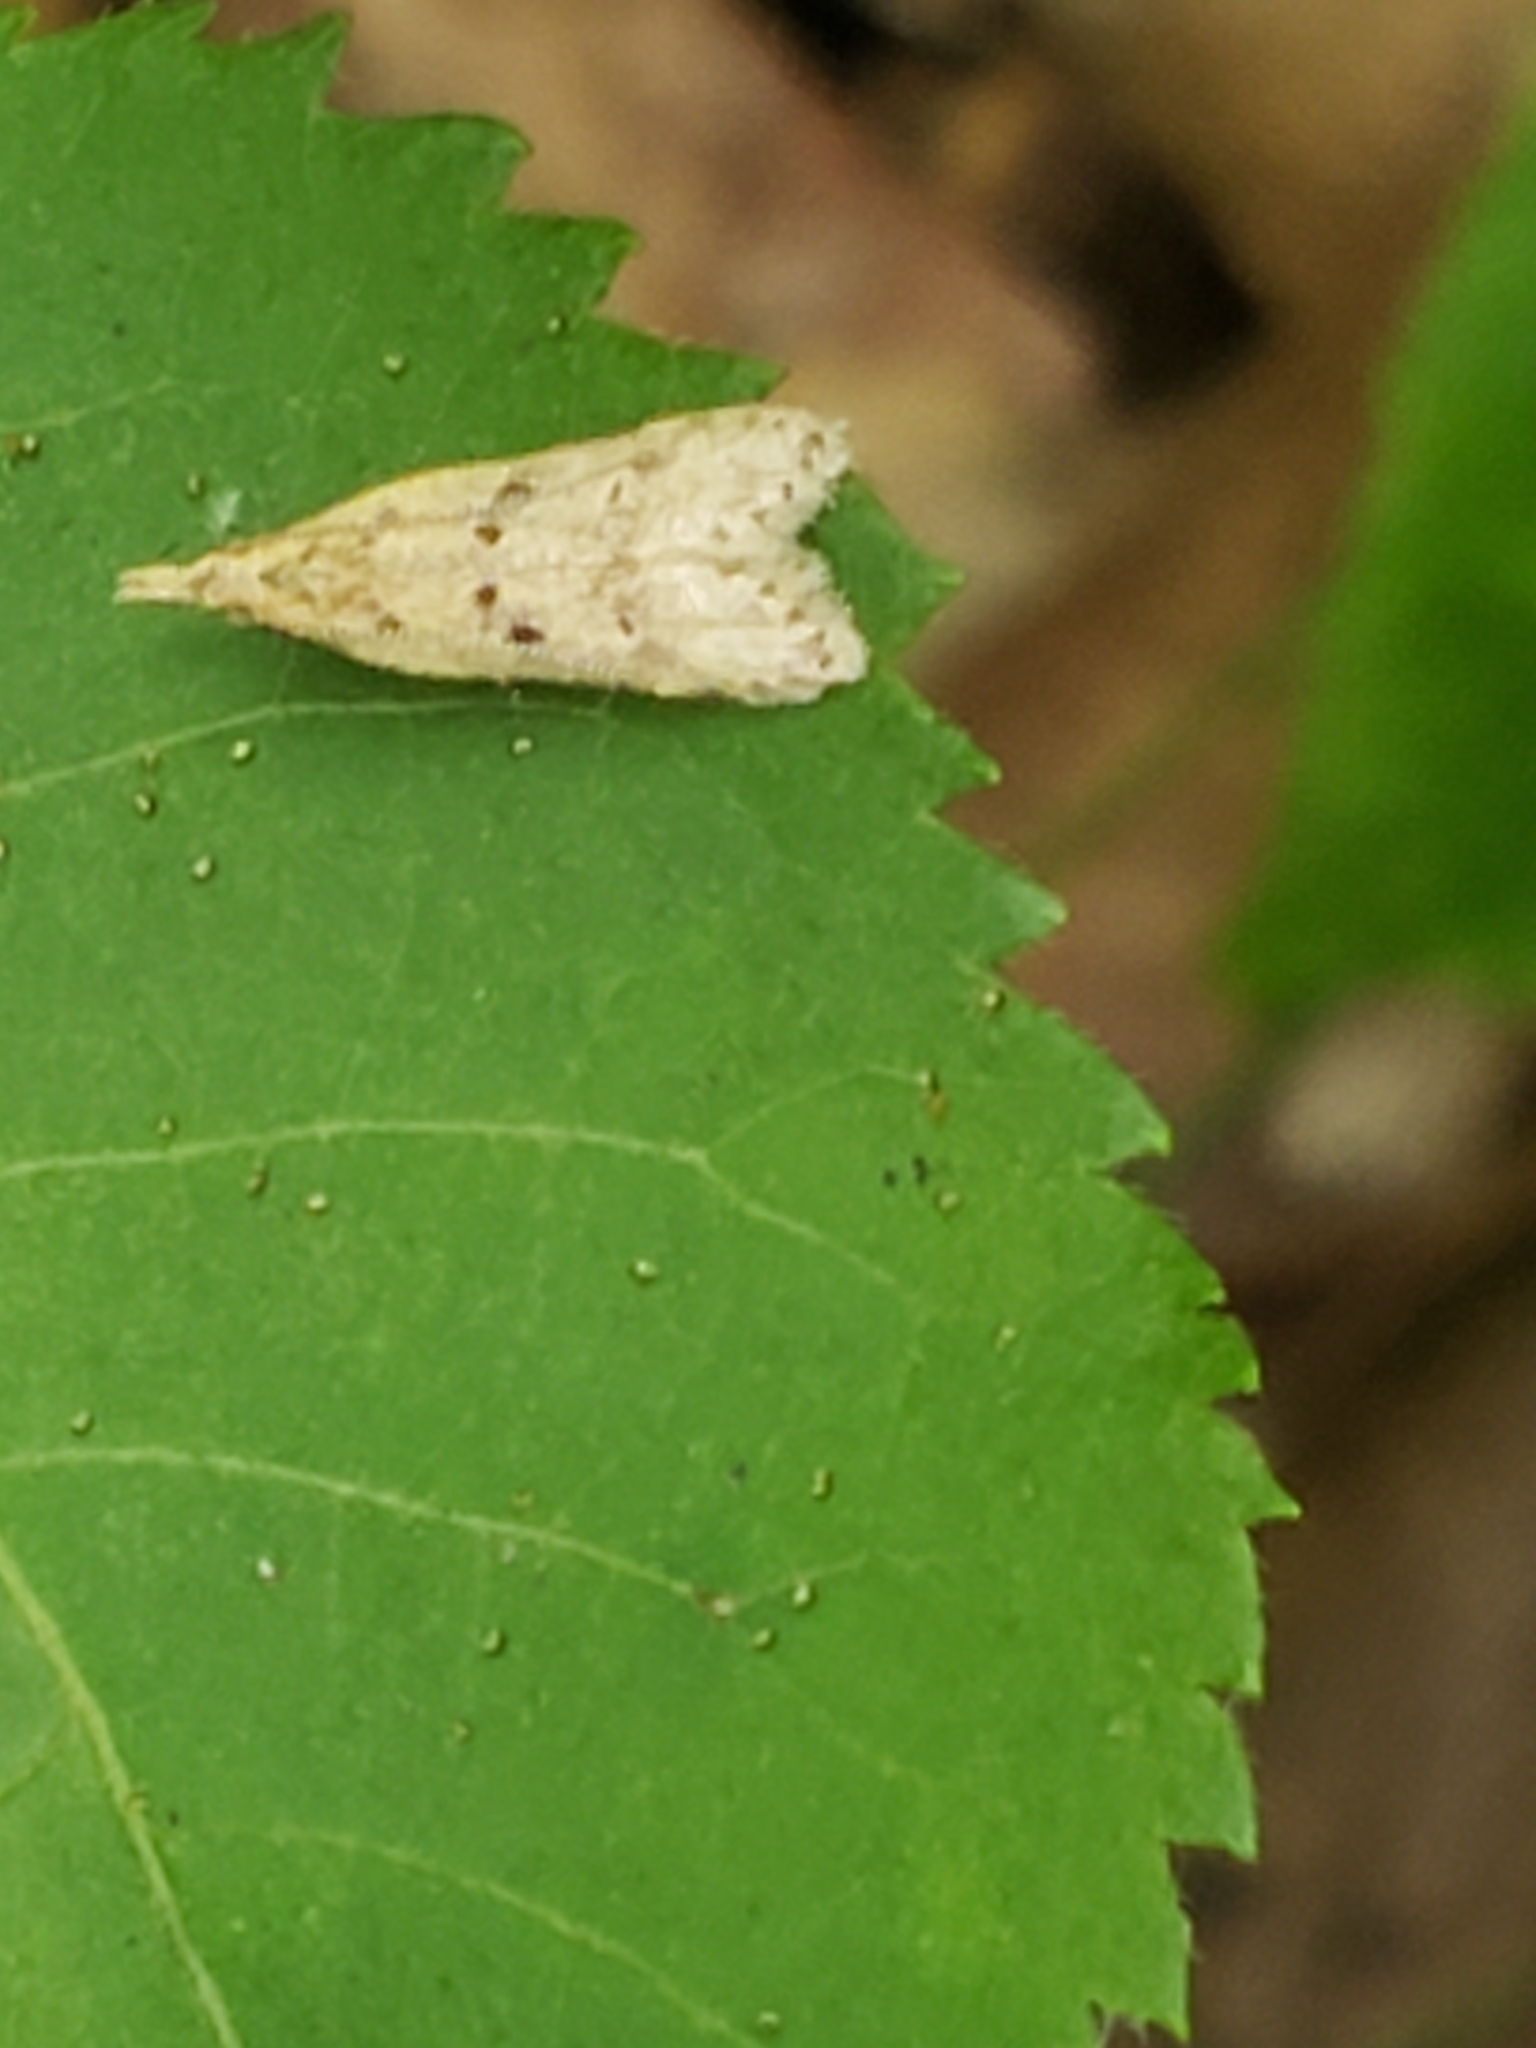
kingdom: Animalia
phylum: Arthropoda
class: Insecta
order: Lepidoptera
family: Gelechiidae
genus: Dichomeris
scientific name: Dichomeris punctipennella
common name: Many-spotted dichomeris moth
